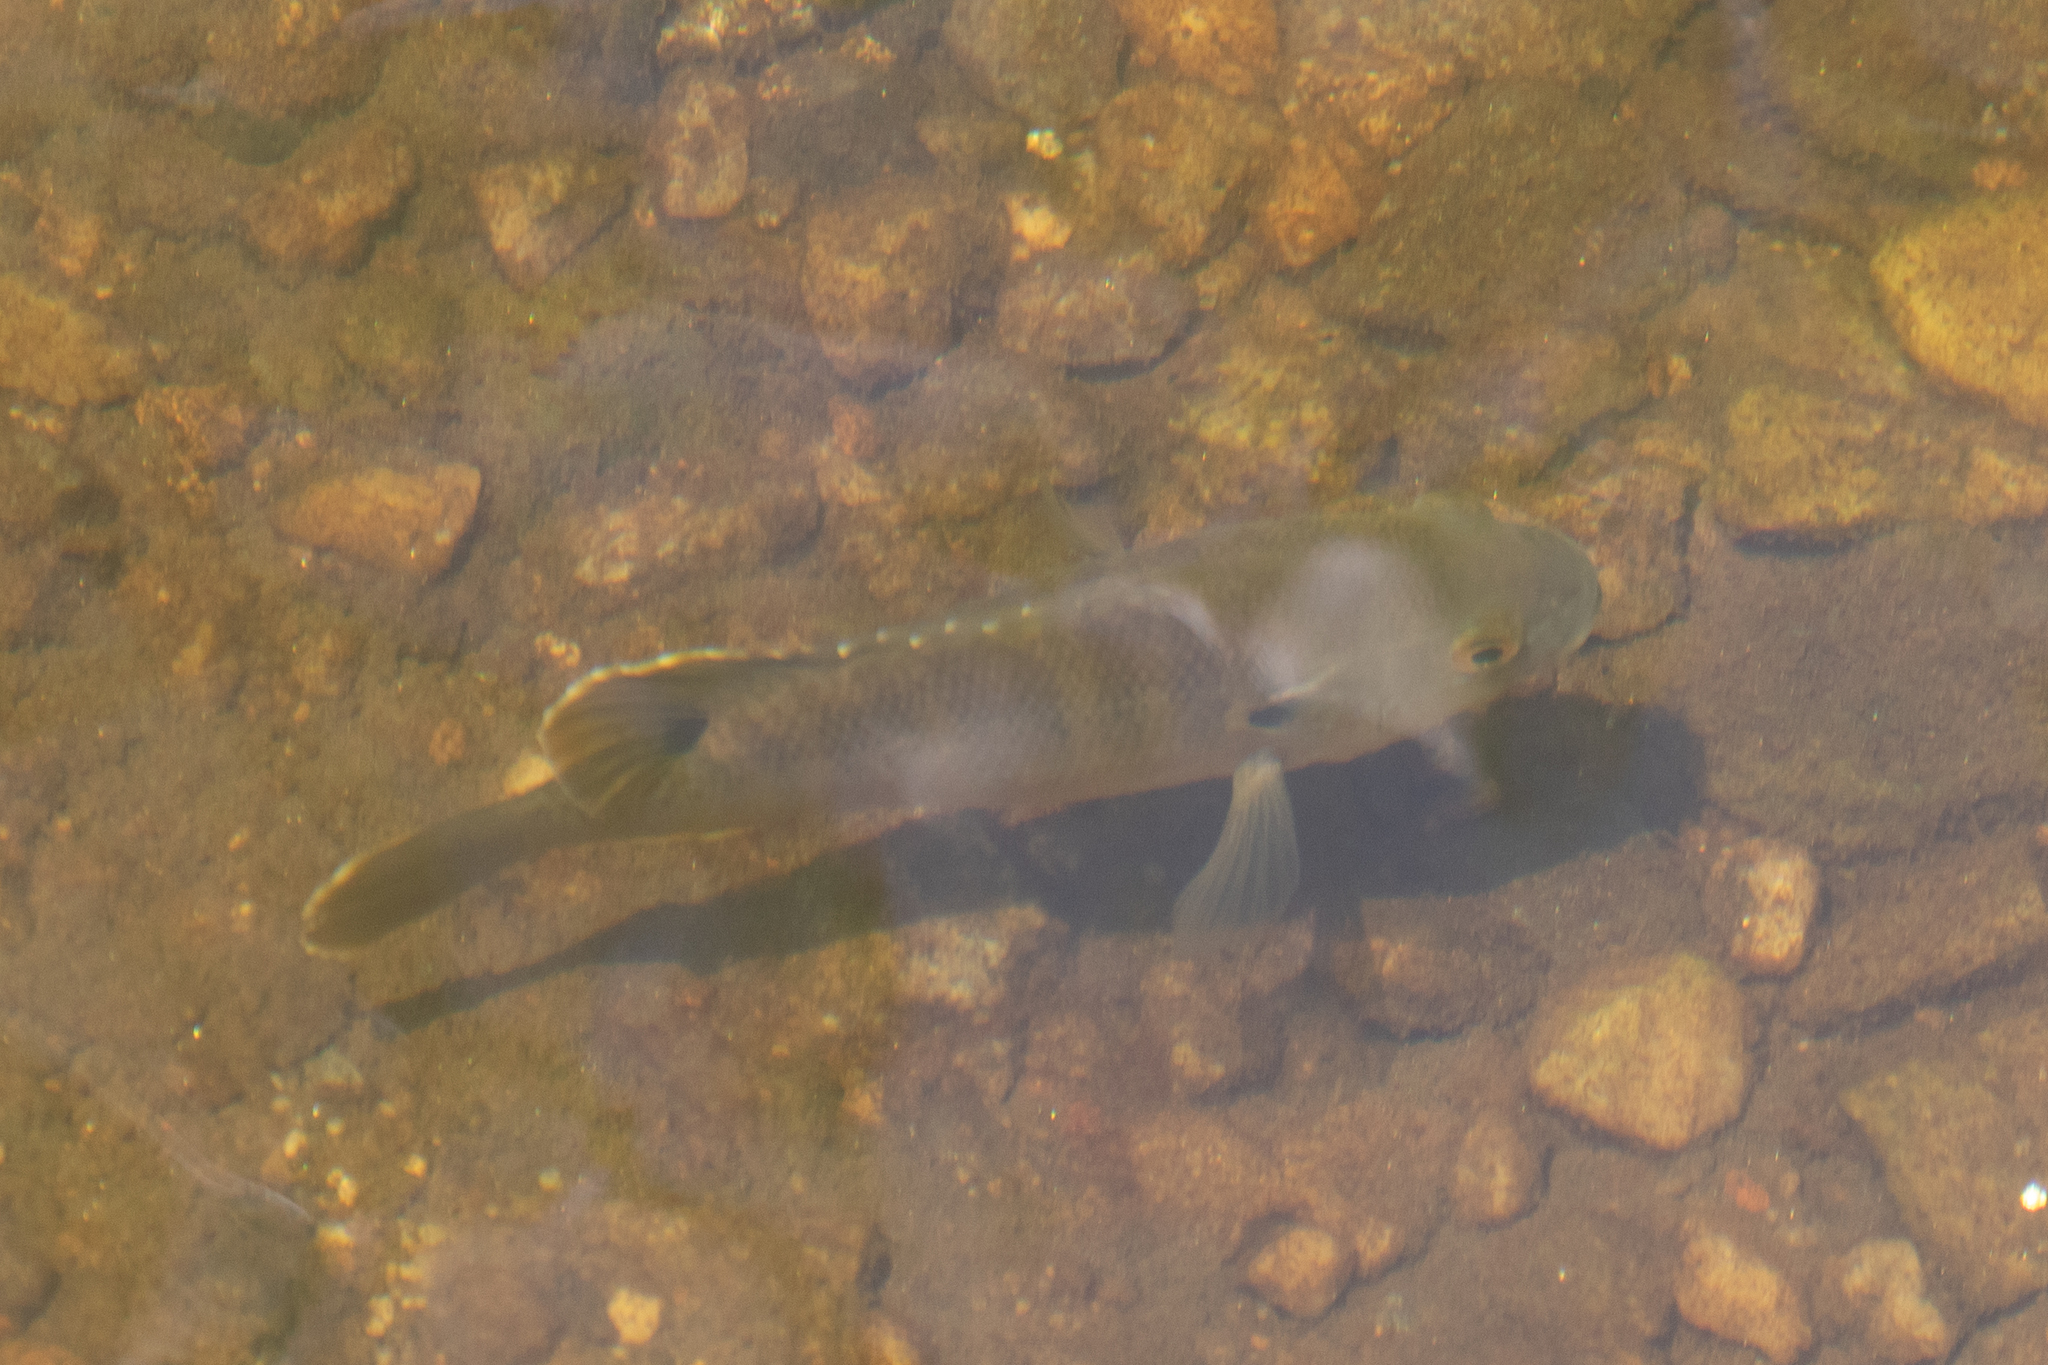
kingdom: Animalia
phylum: Chordata
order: Perciformes
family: Centrarchidae
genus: Lepomis
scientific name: Lepomis macrochirus
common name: Bluegill
